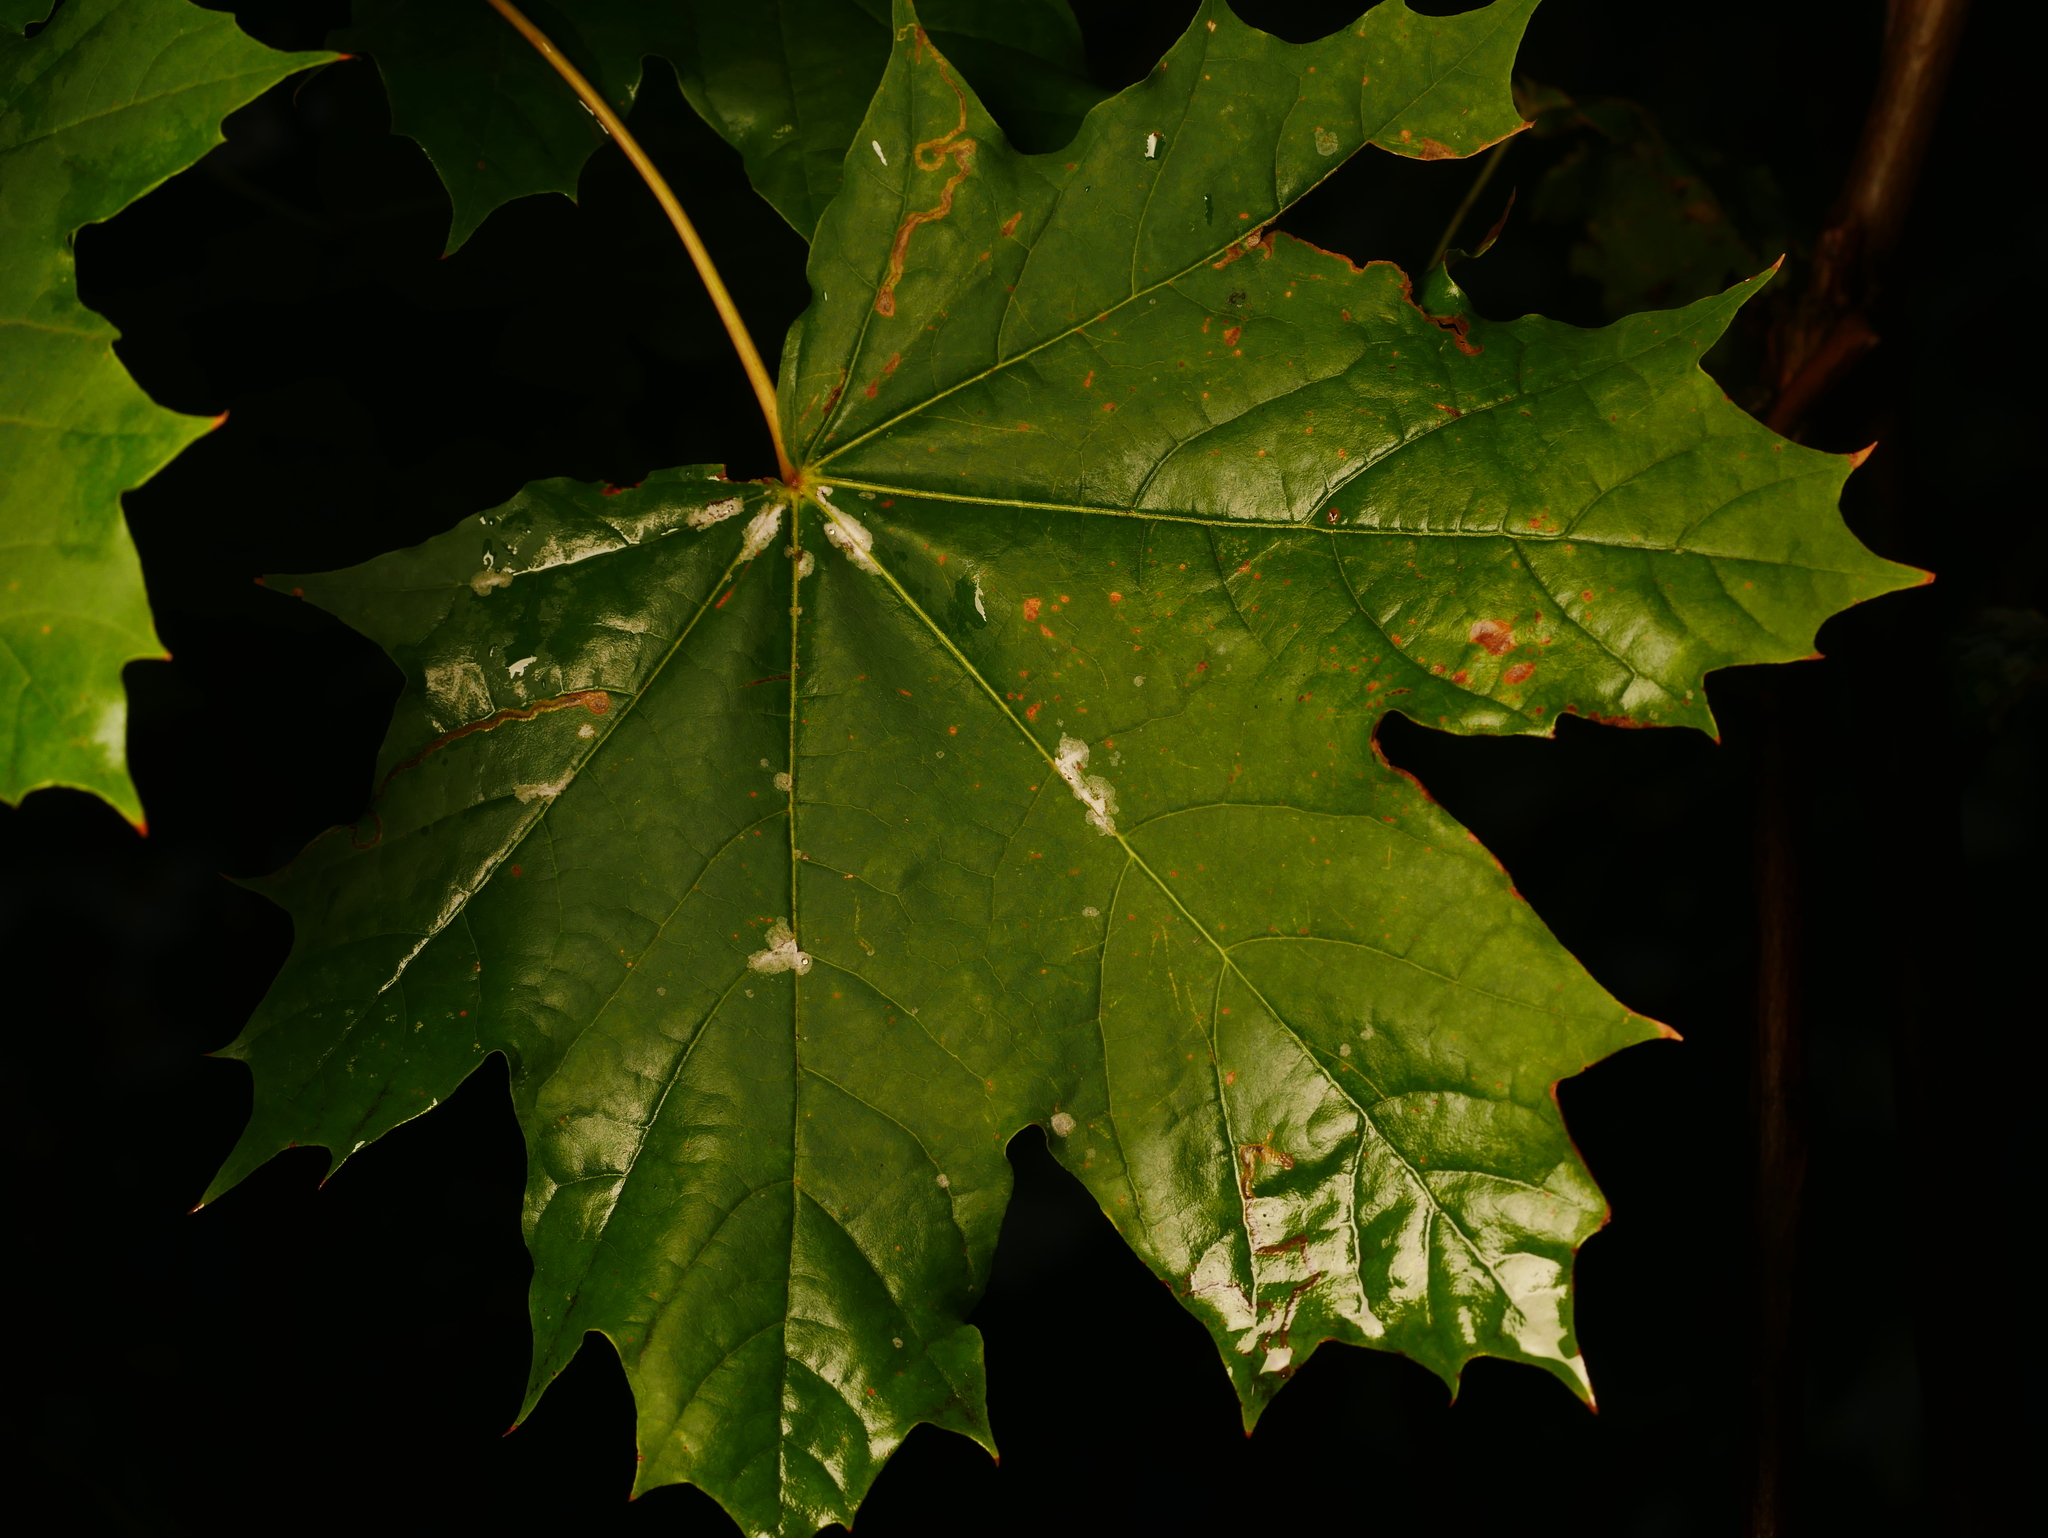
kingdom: Plantae
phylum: Tracheophyta
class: Magnoliopsida
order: Sapindales
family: Sapindaceae
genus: Acer
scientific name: Acer platanoides
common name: Norway maple
